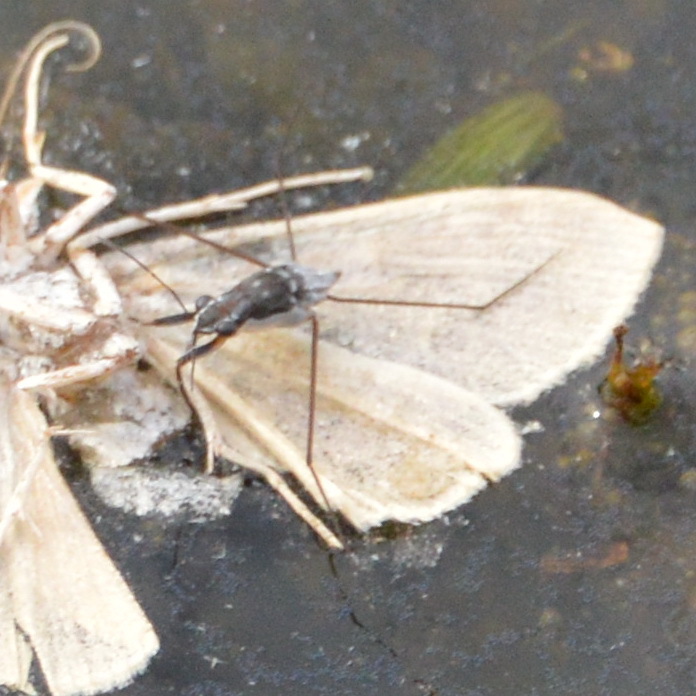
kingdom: Animalia
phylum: Arthropoda
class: Insecta
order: Hemiptera
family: Gerridae
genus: Neogerris
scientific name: Neogerris hesione
